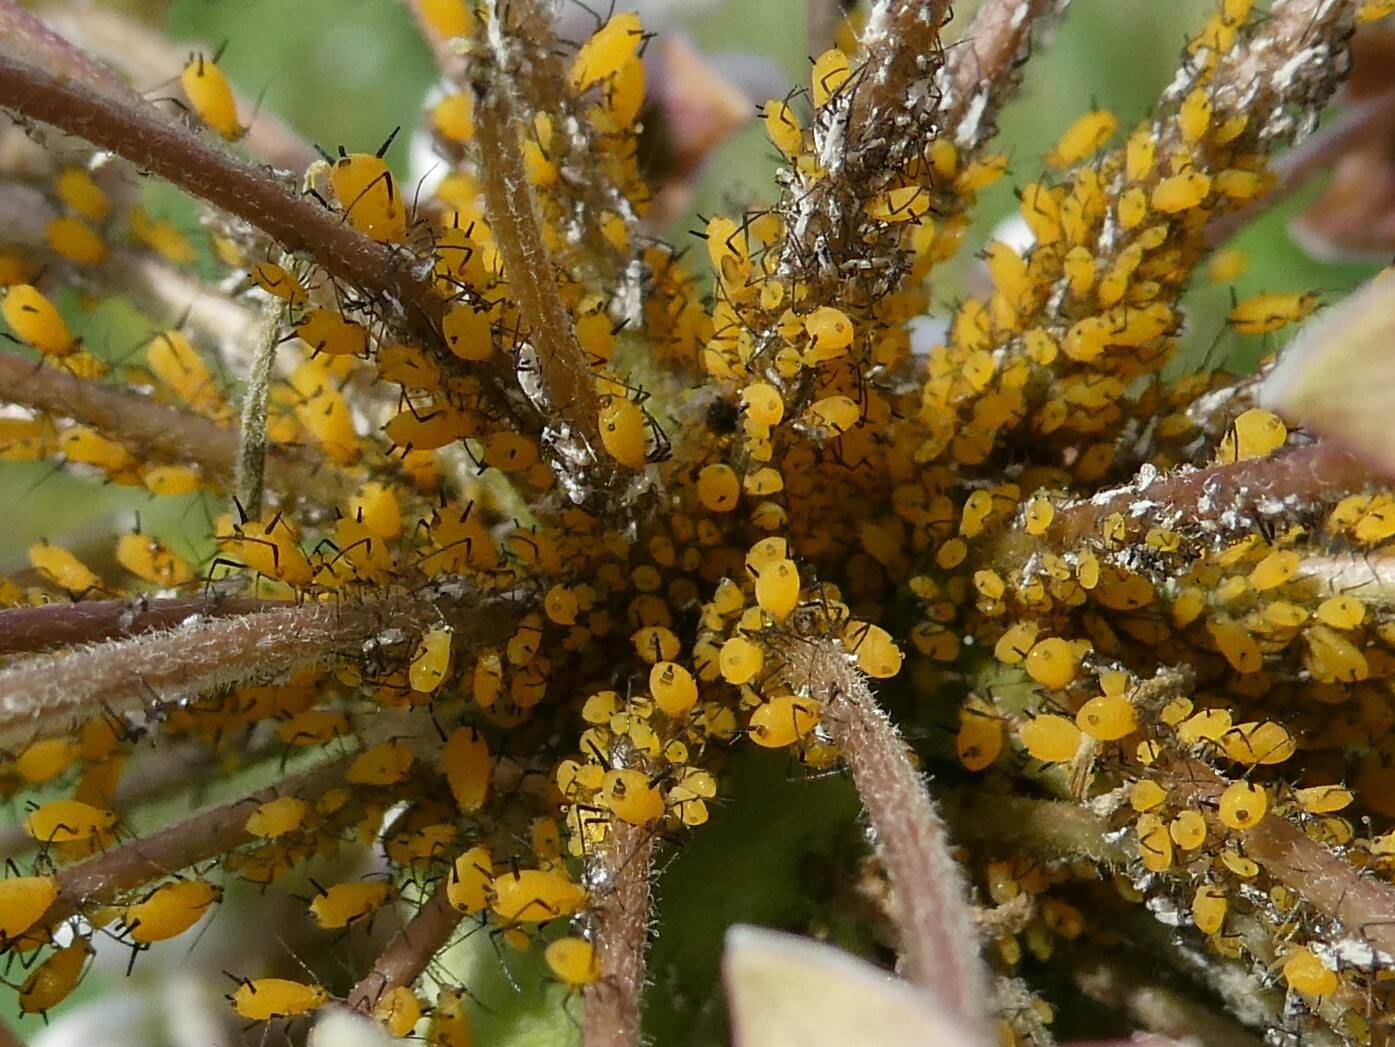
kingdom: Animalia
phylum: Arthropoda
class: Insecta
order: Hemiptera
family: Aphididae
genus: Aphis
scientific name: Aphis nerii
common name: Oleander aphid
